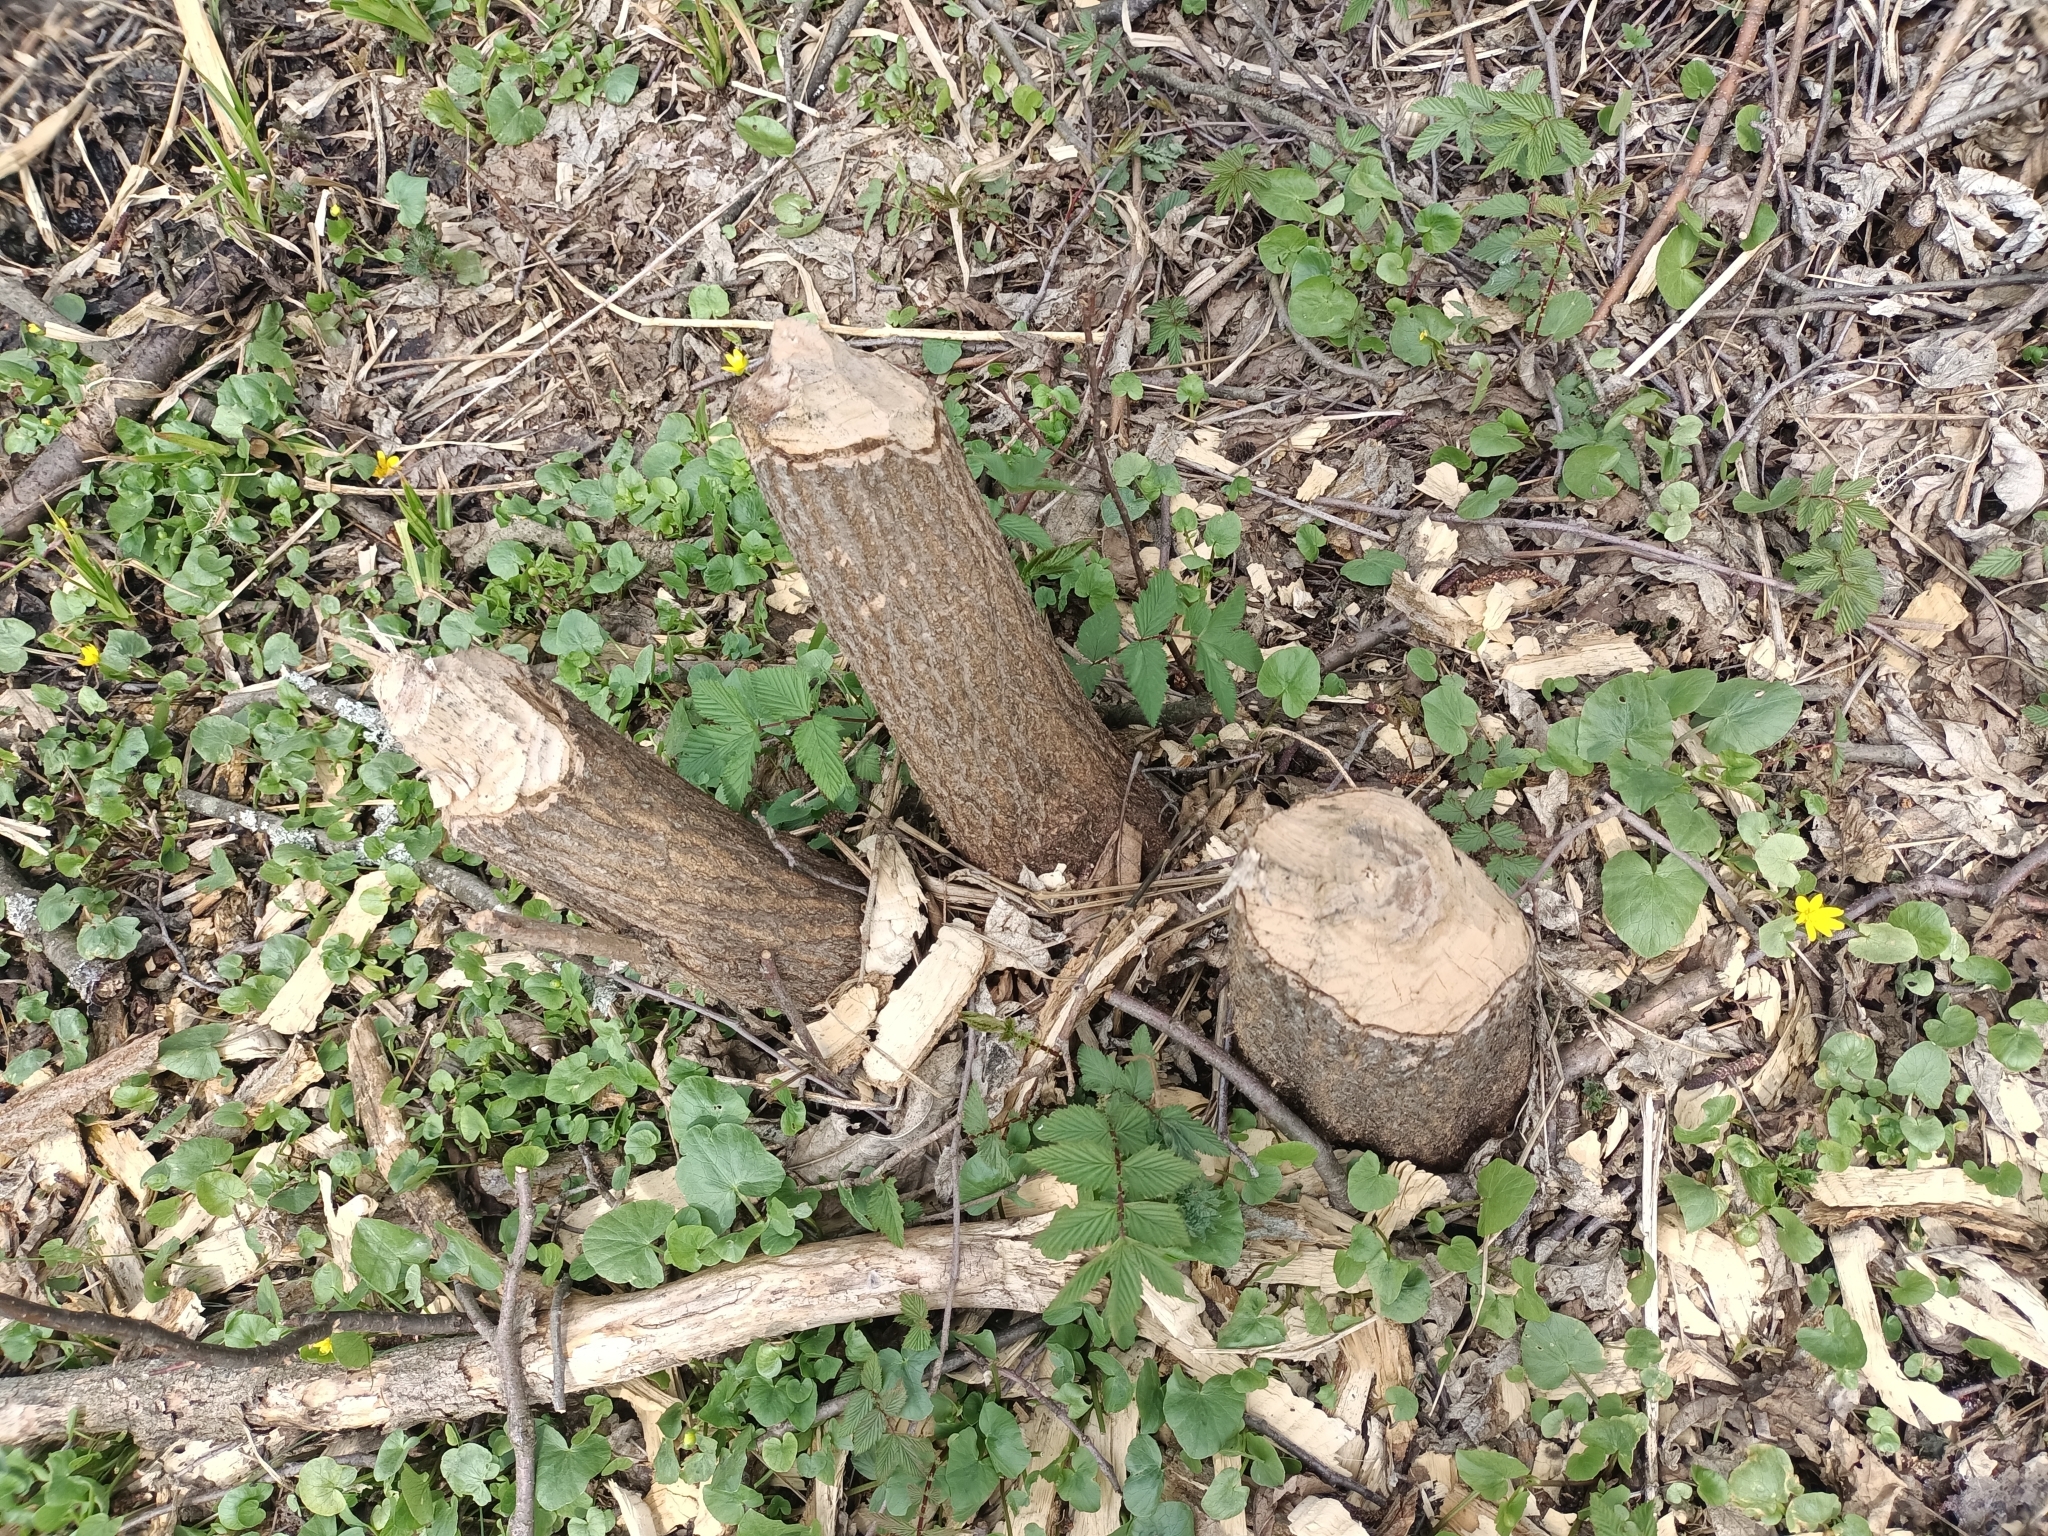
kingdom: Animalia
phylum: Chordata
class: Mammalia
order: Rodentia
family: Castoridae
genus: Castor
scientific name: Castor fiber
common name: Eurasian beaver
